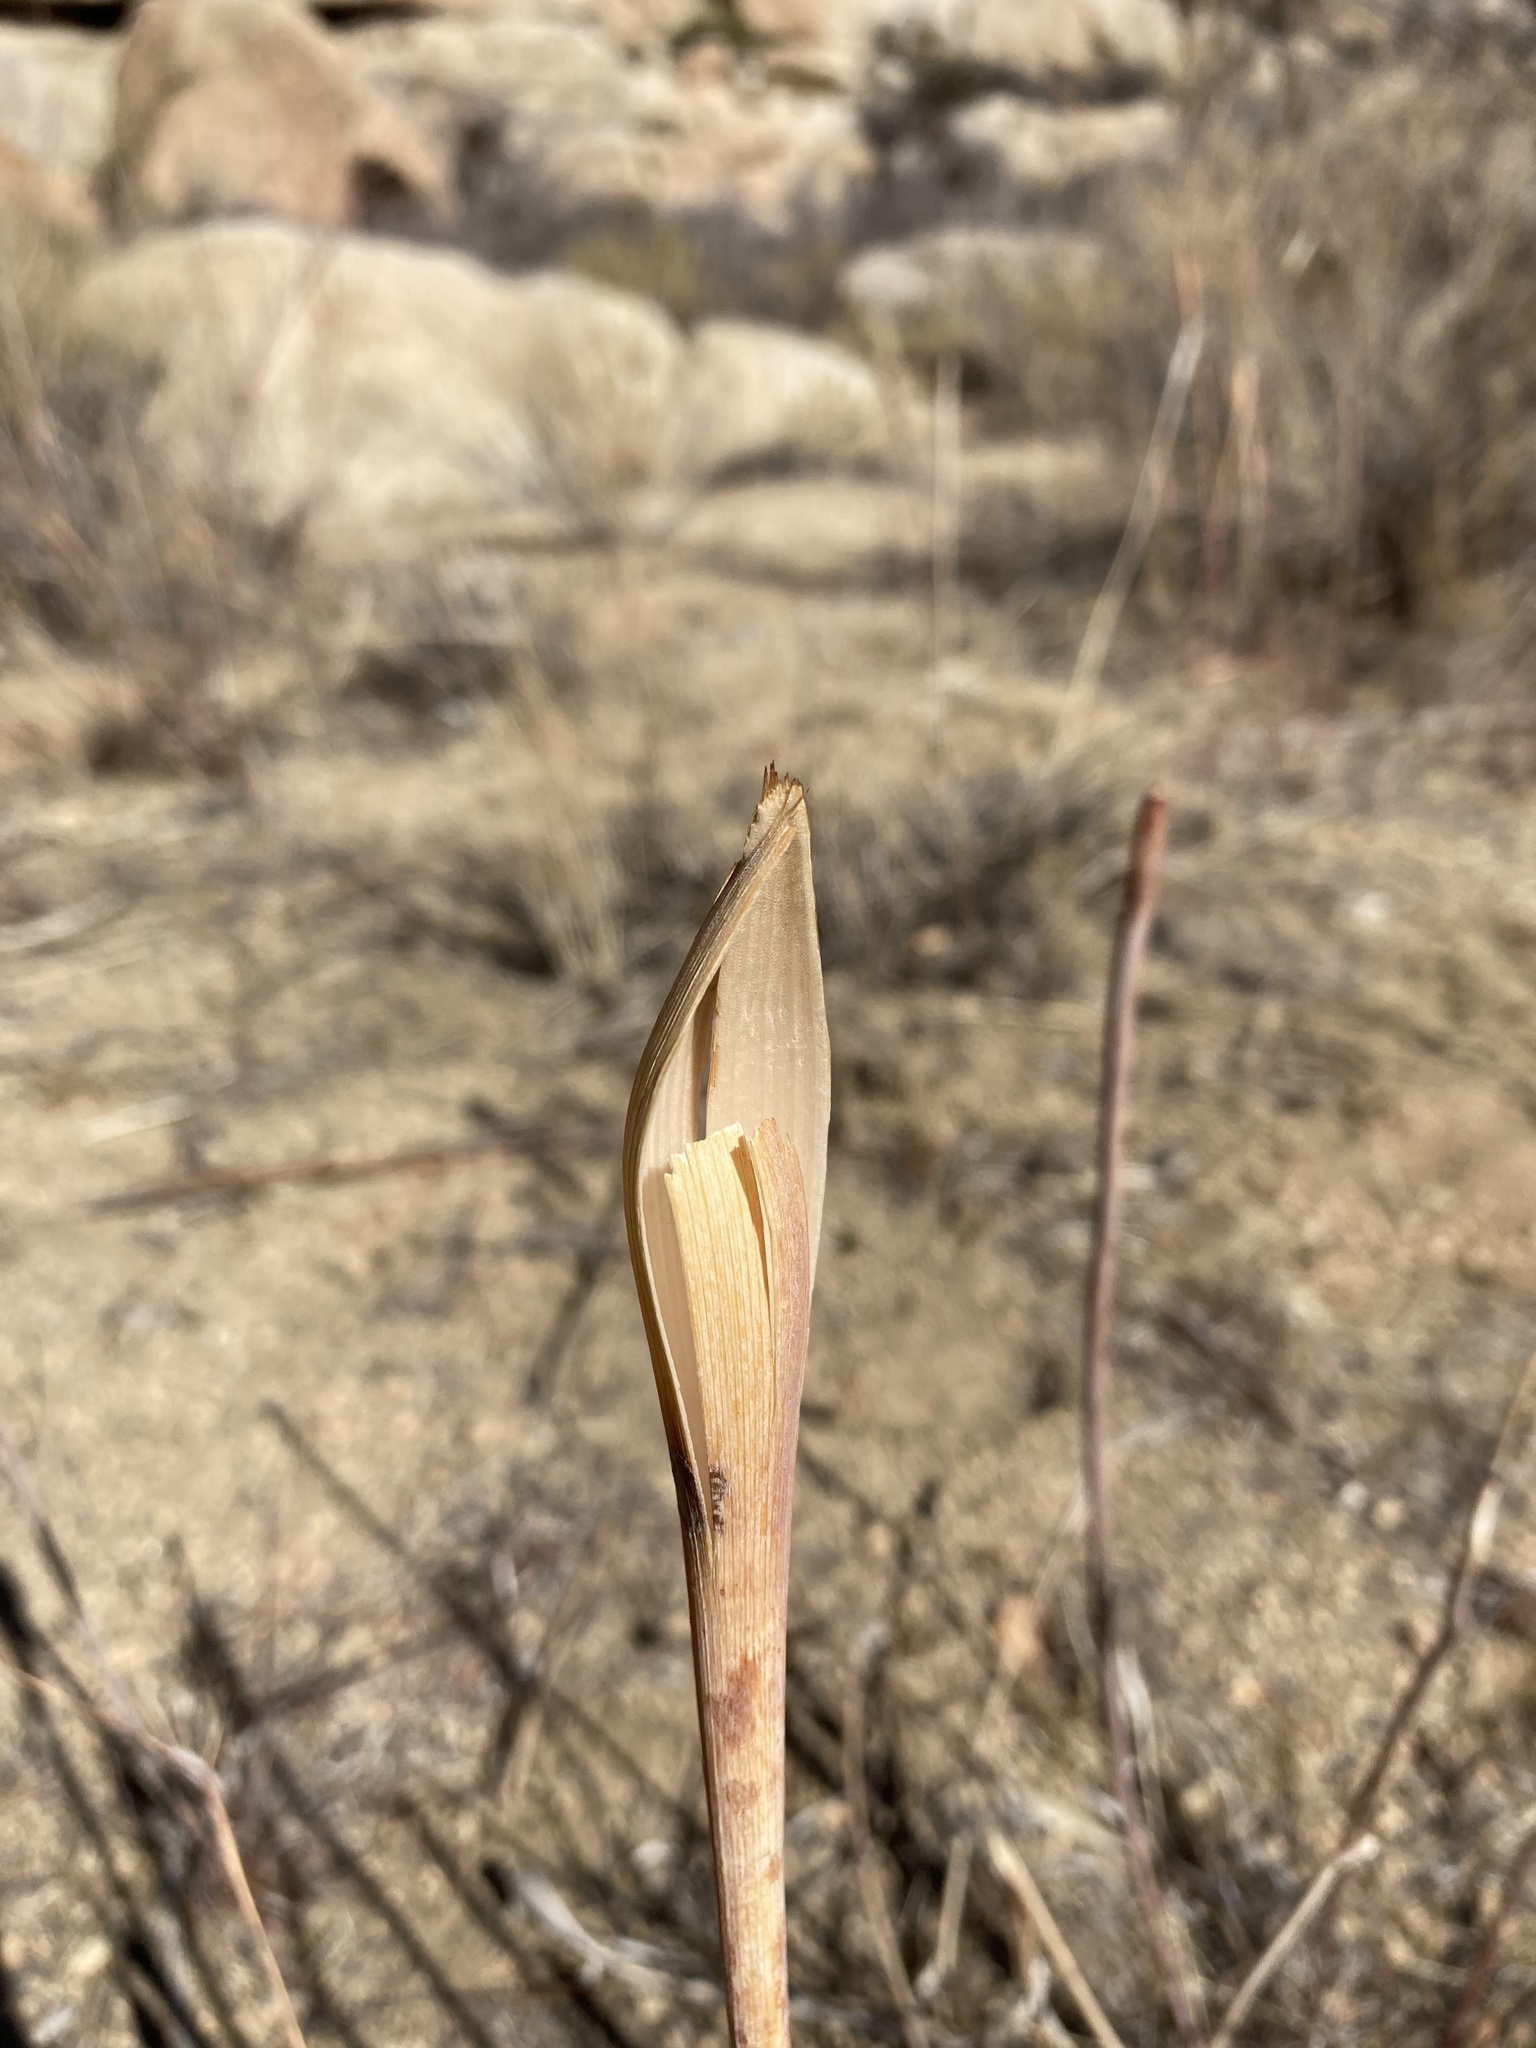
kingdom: Plantae
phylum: Tracheophyta
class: Magnoliopsida
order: Caryophyllales
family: Polygonaceae
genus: Eriogonum
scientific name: Eriogonum inflatum
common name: Desert trumpet
